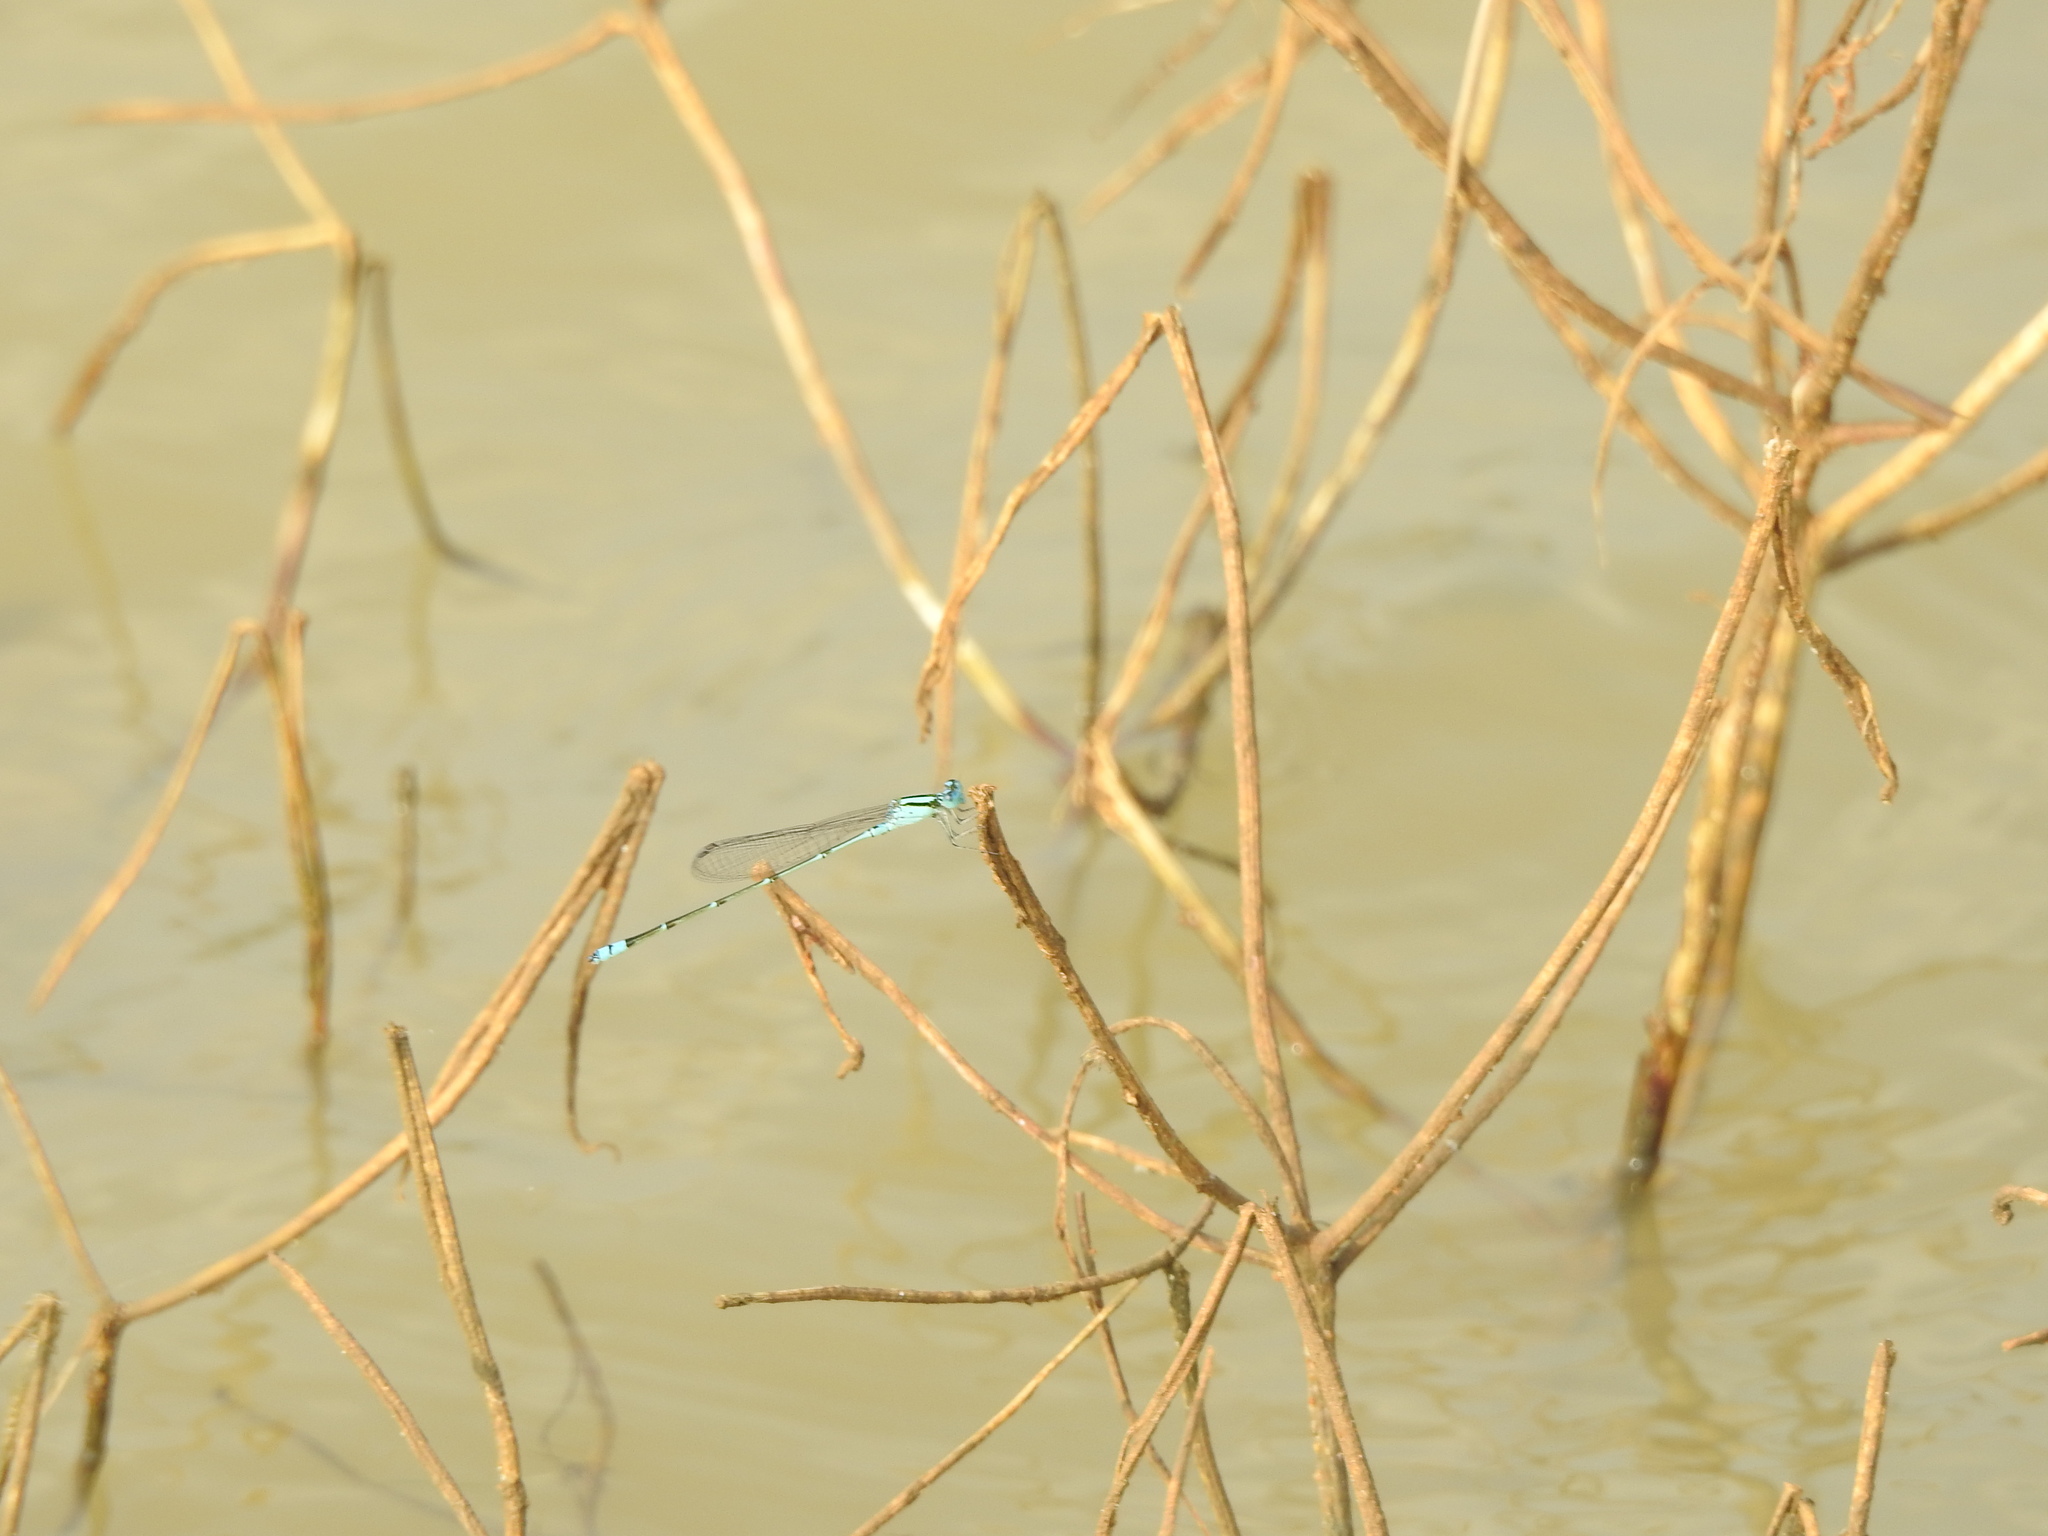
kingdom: Animalia
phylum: Arthropoda
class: Insecta
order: Odonata
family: Coenagrionidae
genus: Pseudagrion
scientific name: Pseudagrion microcephalum
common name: Blue riverdamsel
